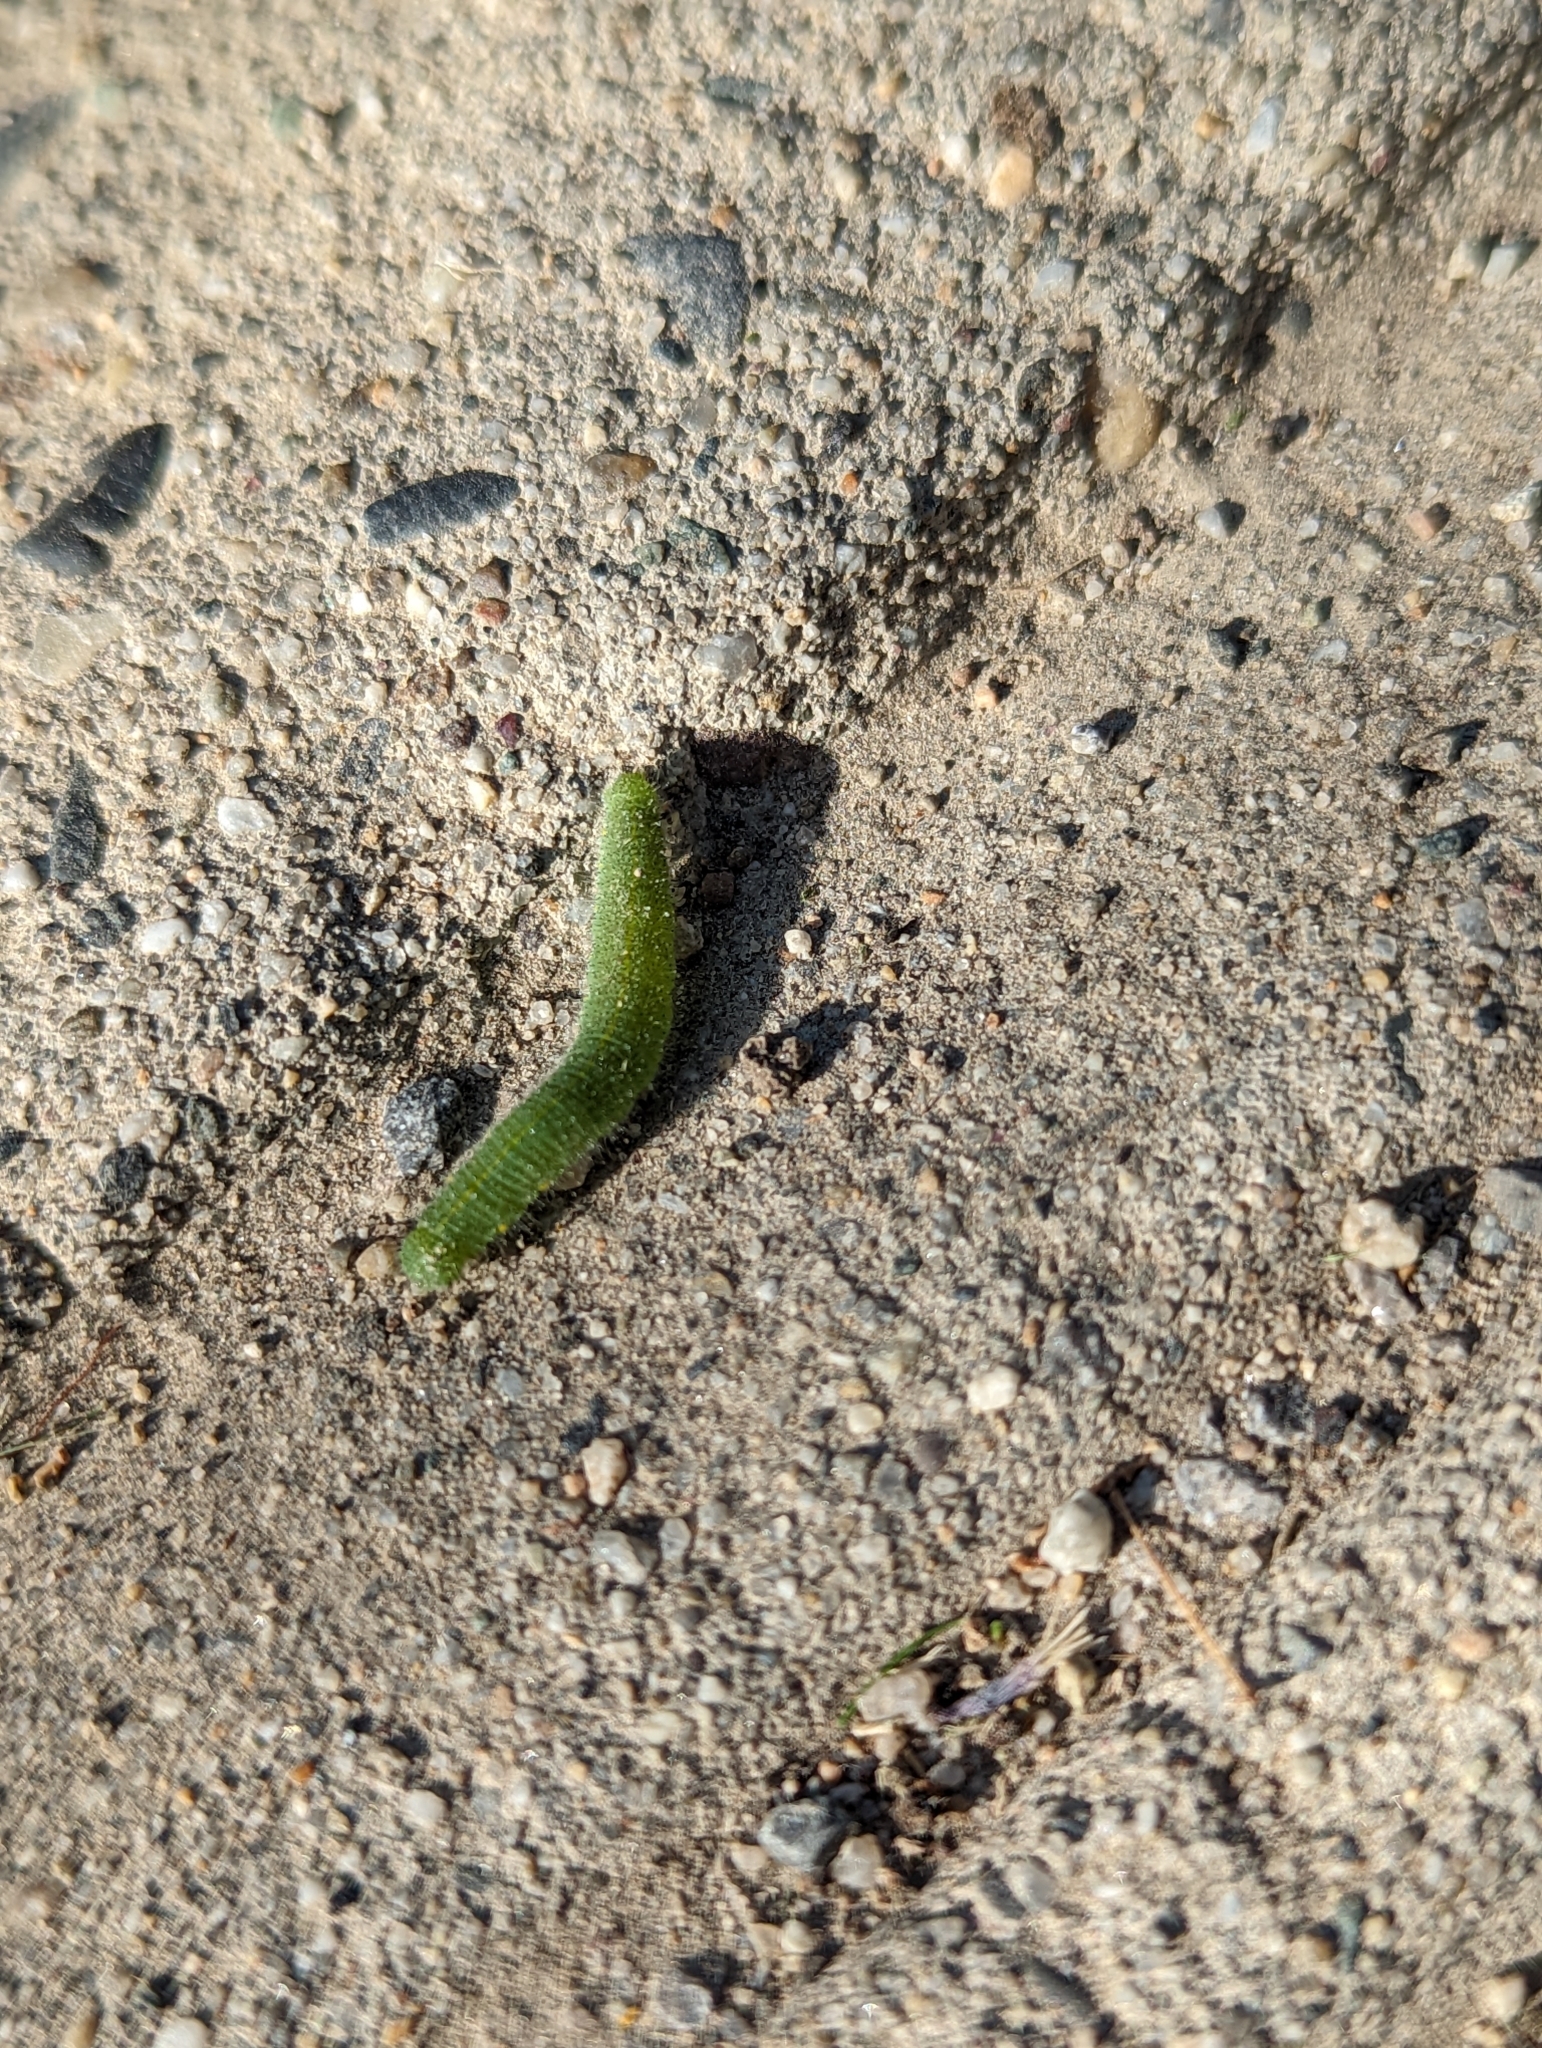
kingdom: Animalia
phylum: Arthropoda
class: Insecta
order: Lepidoptera
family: Pieridae
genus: Pieris
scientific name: Pieris rapae
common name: Small white
